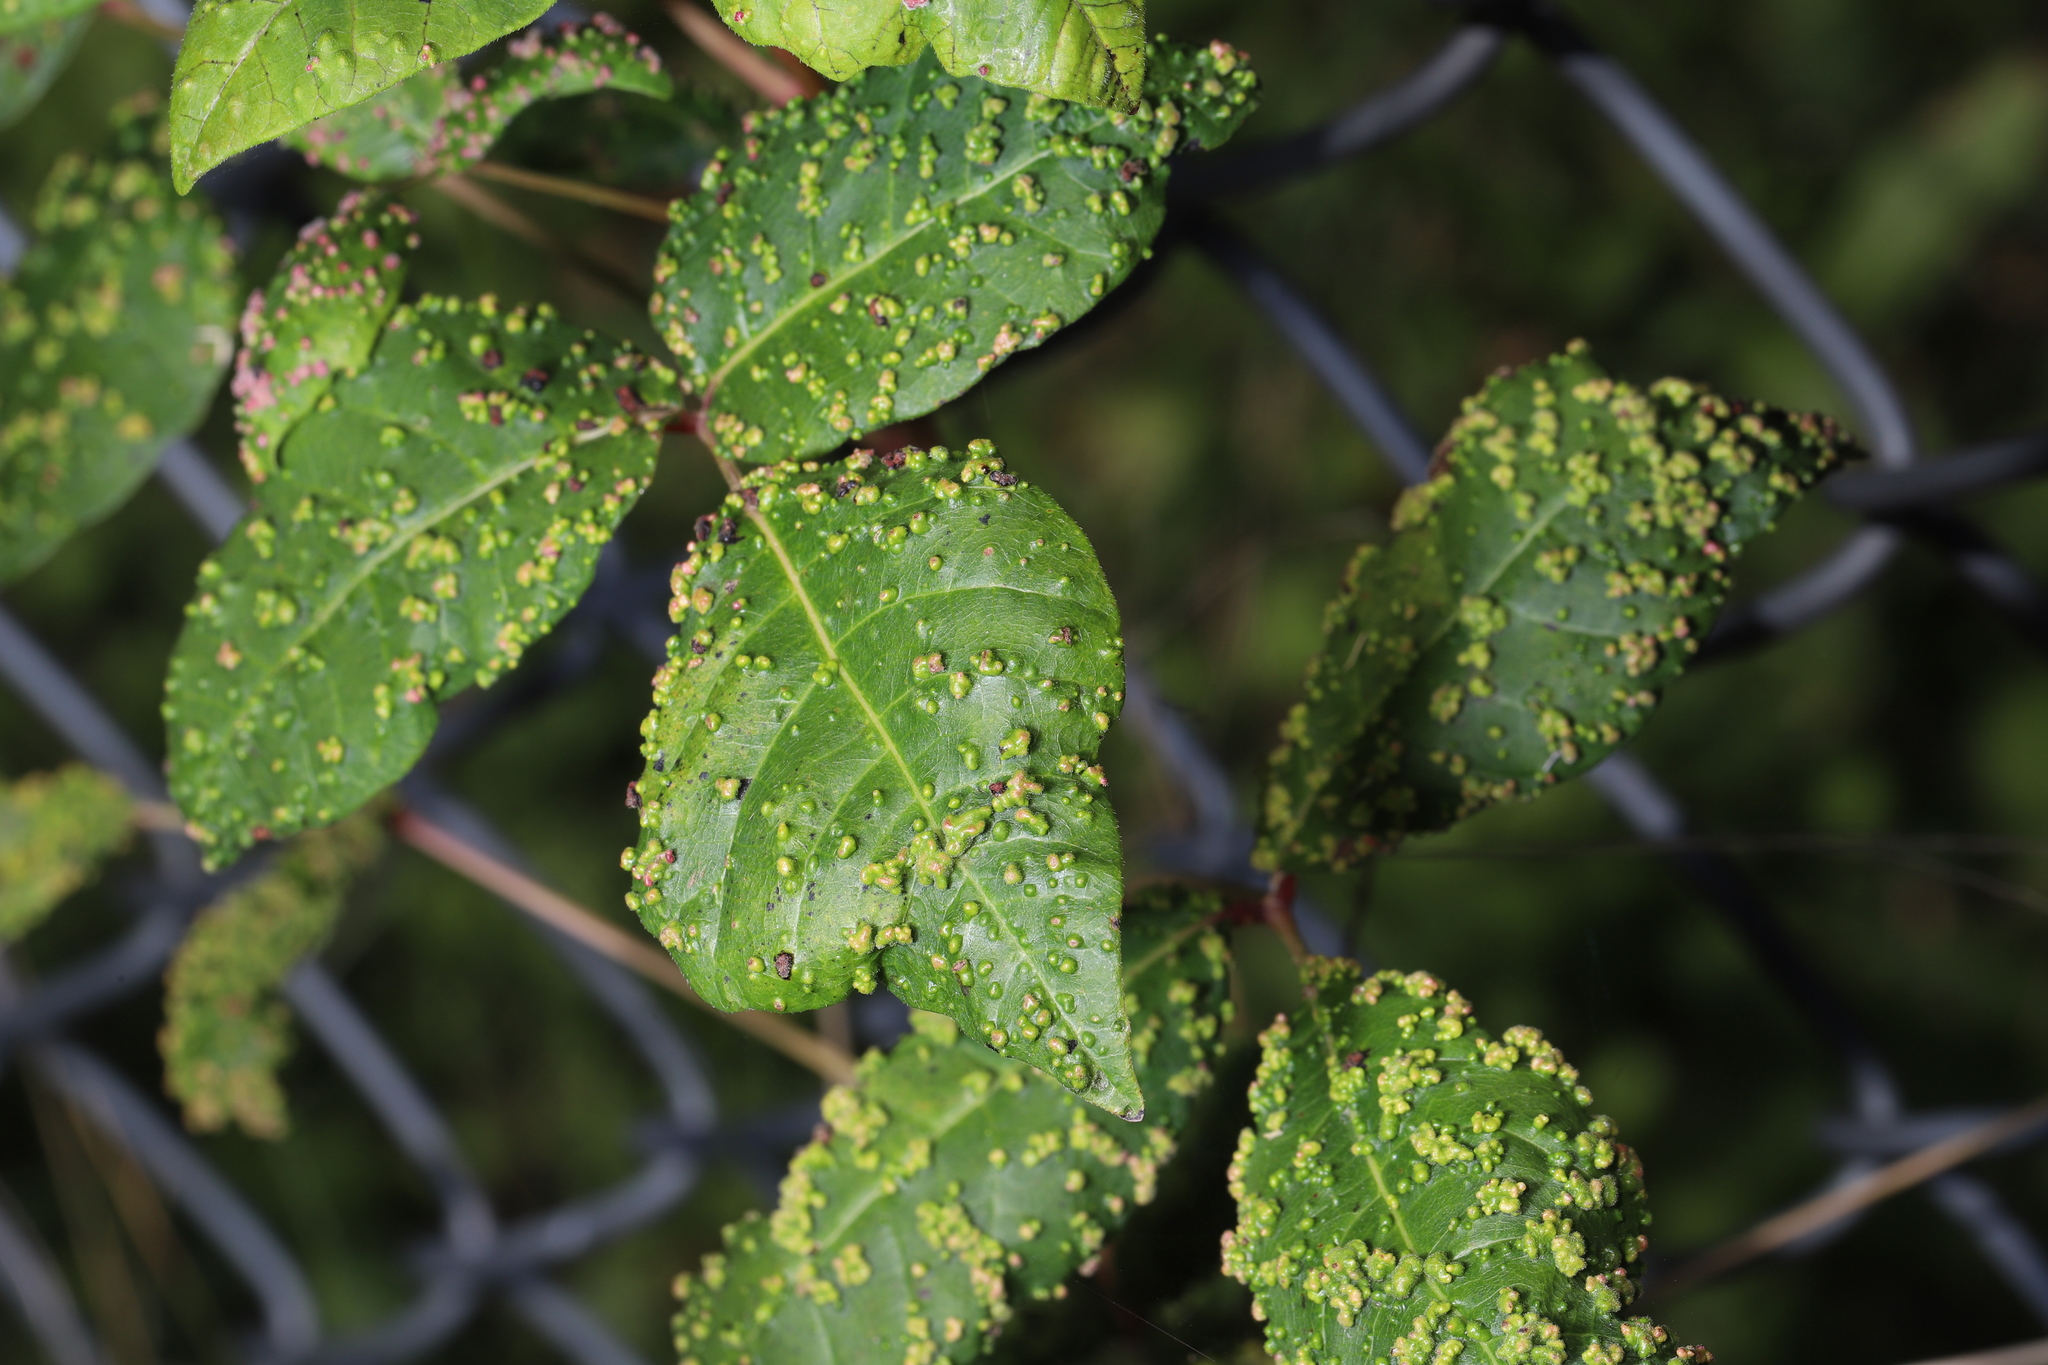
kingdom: Animalia
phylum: Arthropoda
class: Arachnida
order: Trombidiformes
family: Eriophyidae
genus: Aculops
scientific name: Aculops
